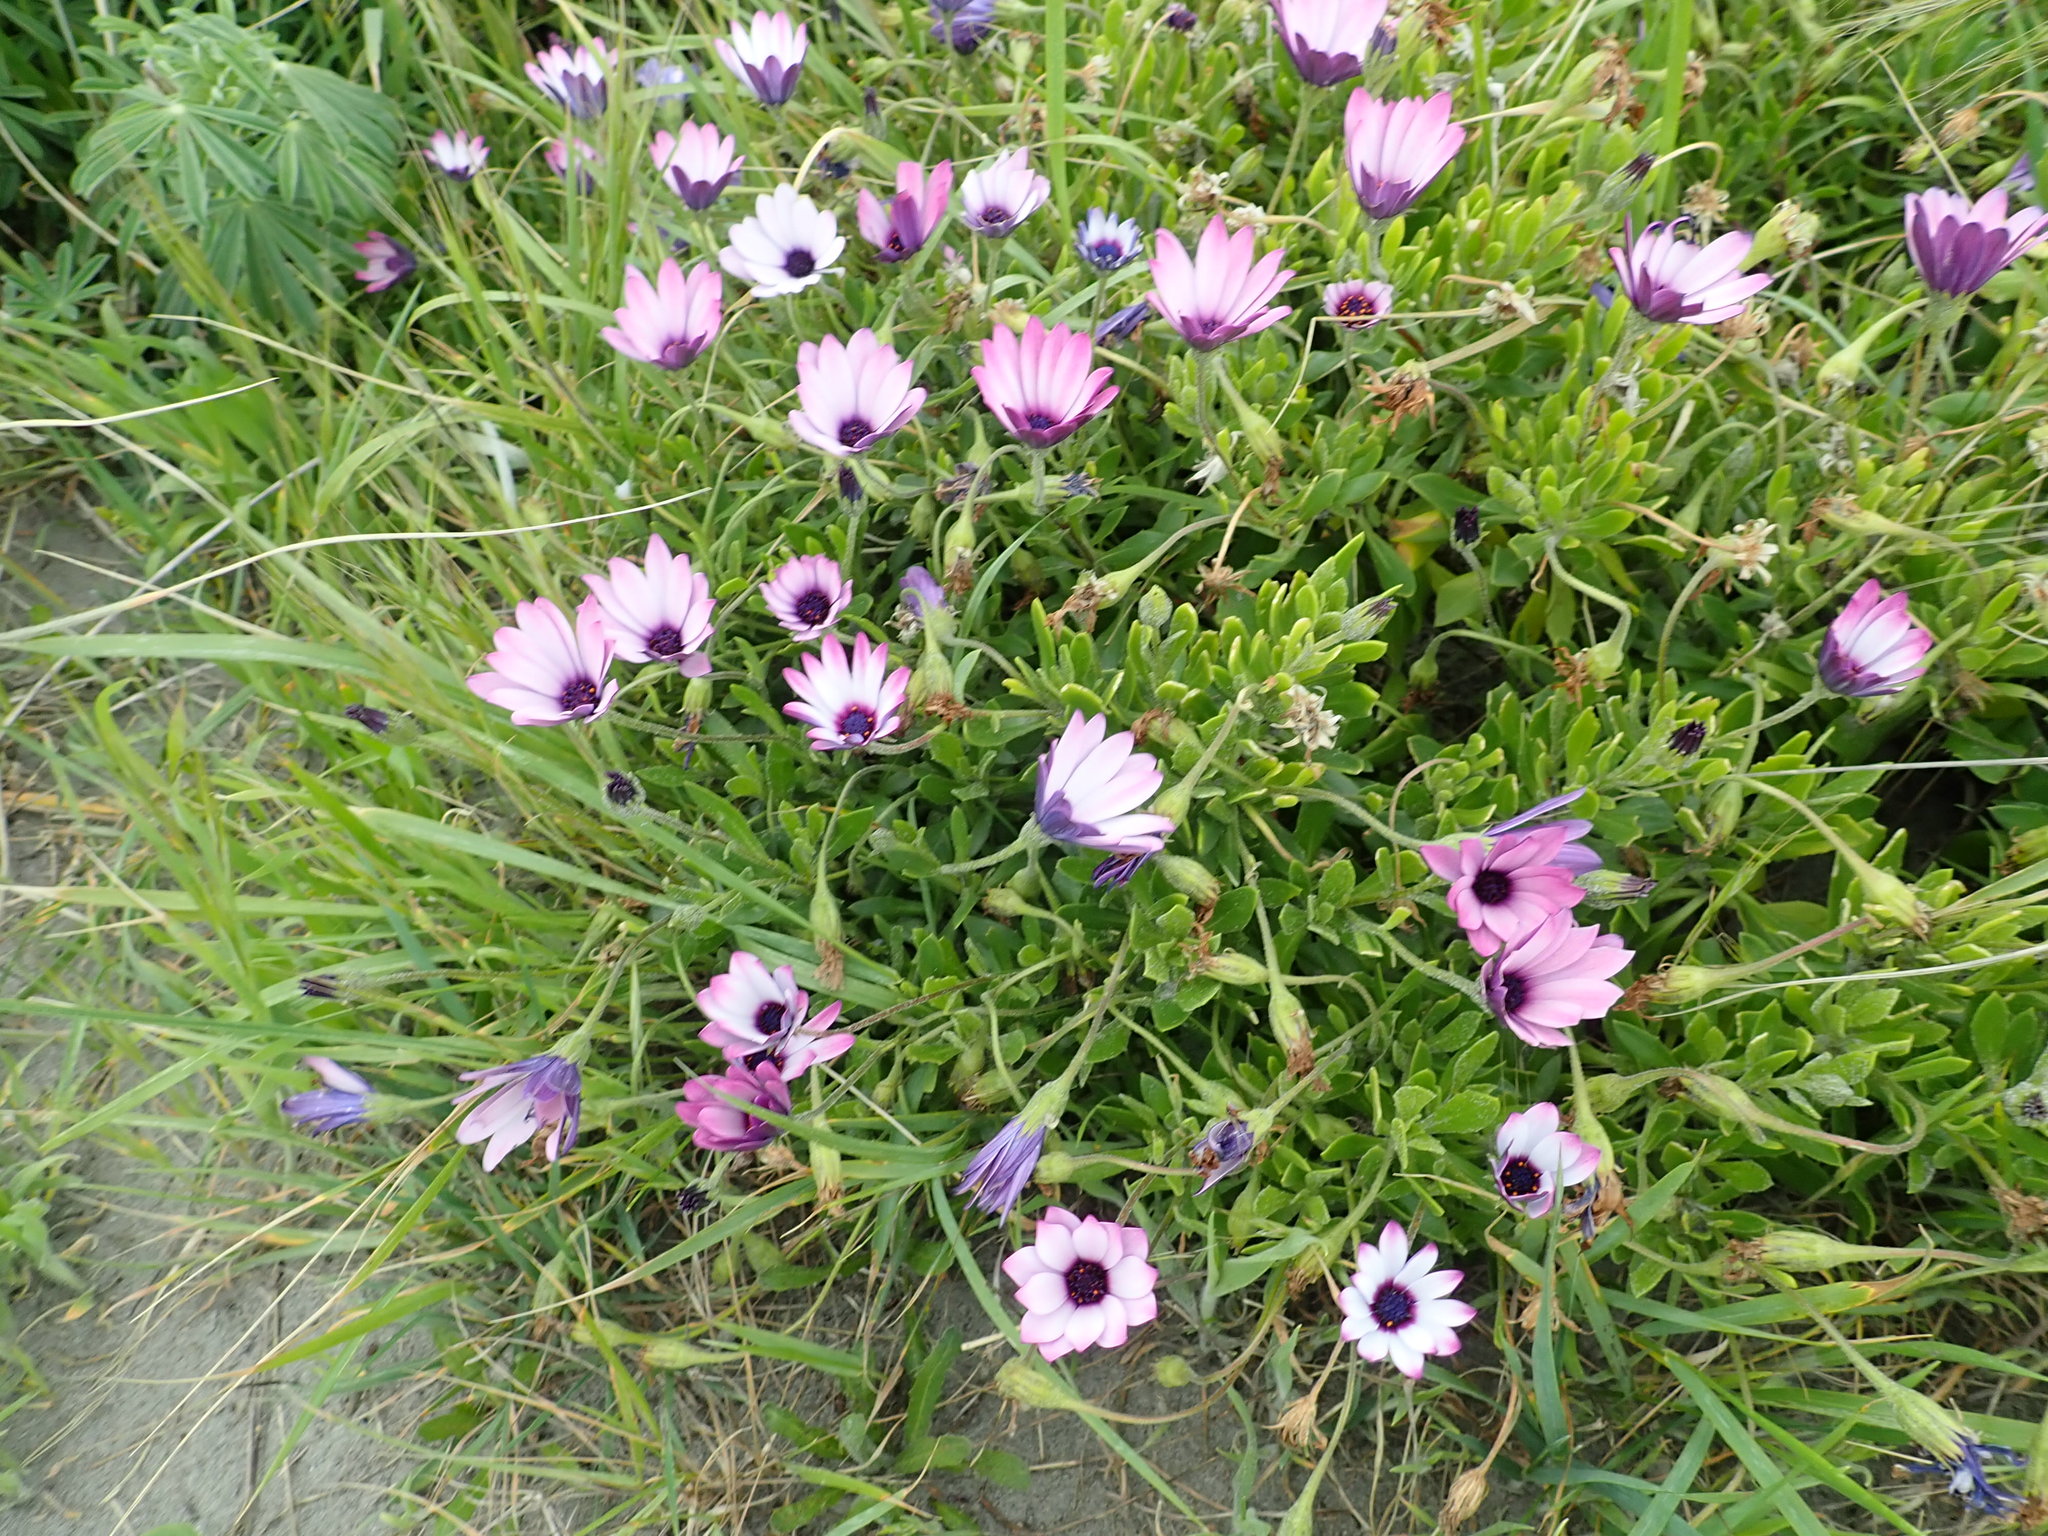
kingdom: Plantae
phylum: Tracheophyta
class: Magnoliopsida
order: Asterales
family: Asteraceae
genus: Dimorphotheca
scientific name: Dimorphotheca fruticosa
